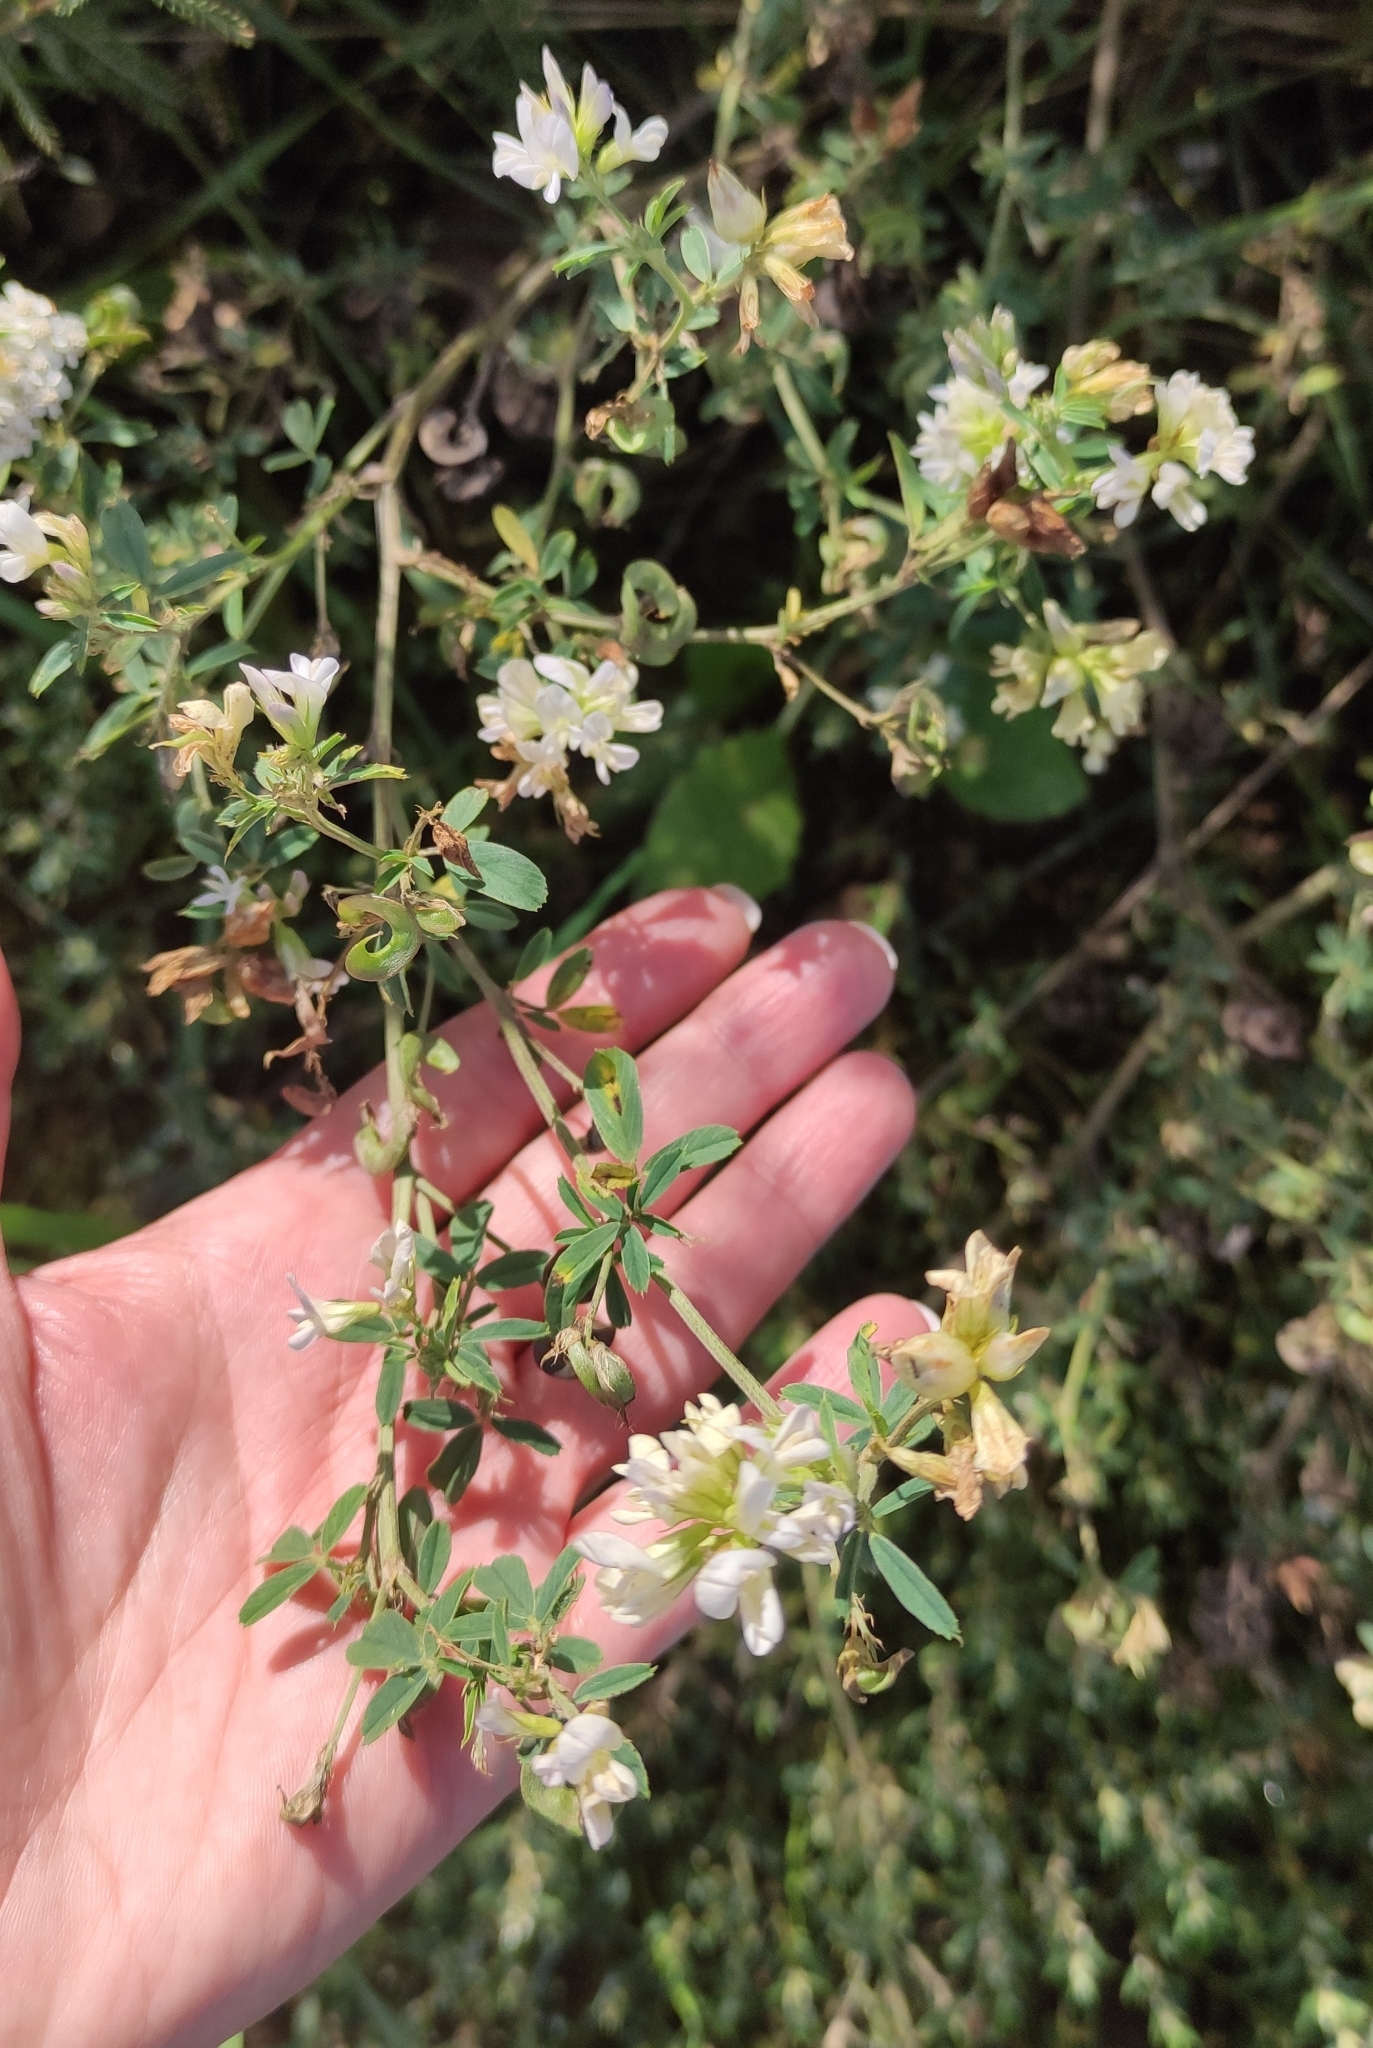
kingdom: Plantae
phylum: Tracheophyta
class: Magnoliopsida
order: Fabales
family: Fabaceae
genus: Medicago
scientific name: Medicago varia
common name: Sand lucerne
